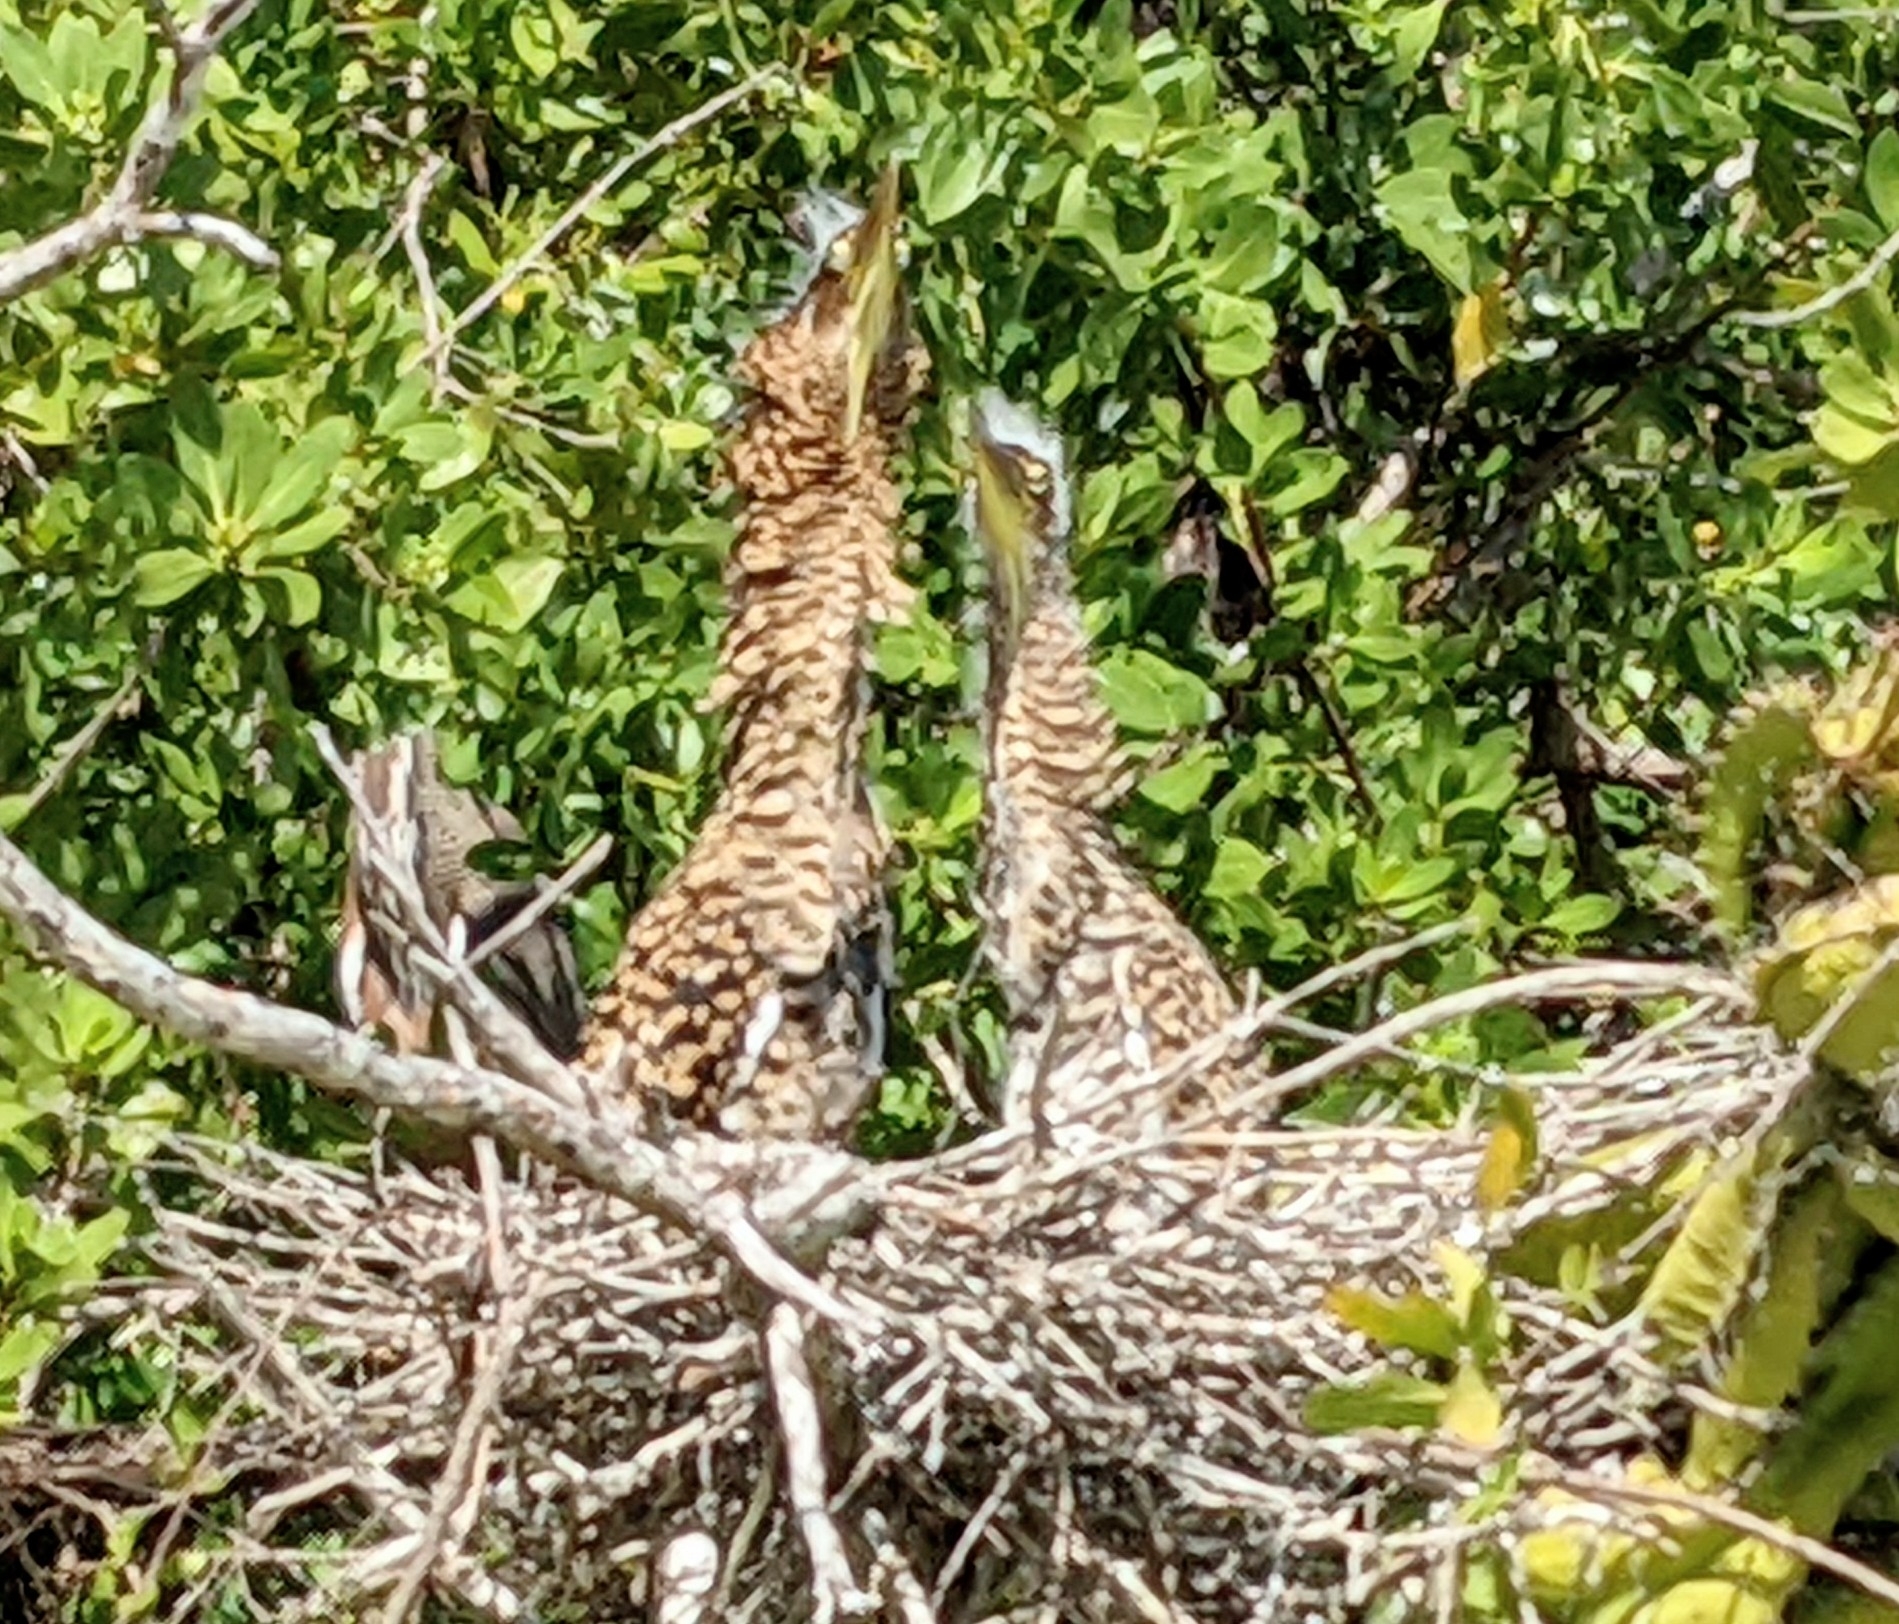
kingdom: Animalia
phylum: Chordata
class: Aves
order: Pelecaniformes
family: Ardeidae
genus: Tigrisoma
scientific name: Tigrisoma mexicanum
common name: Bare-throated tiger-heron
